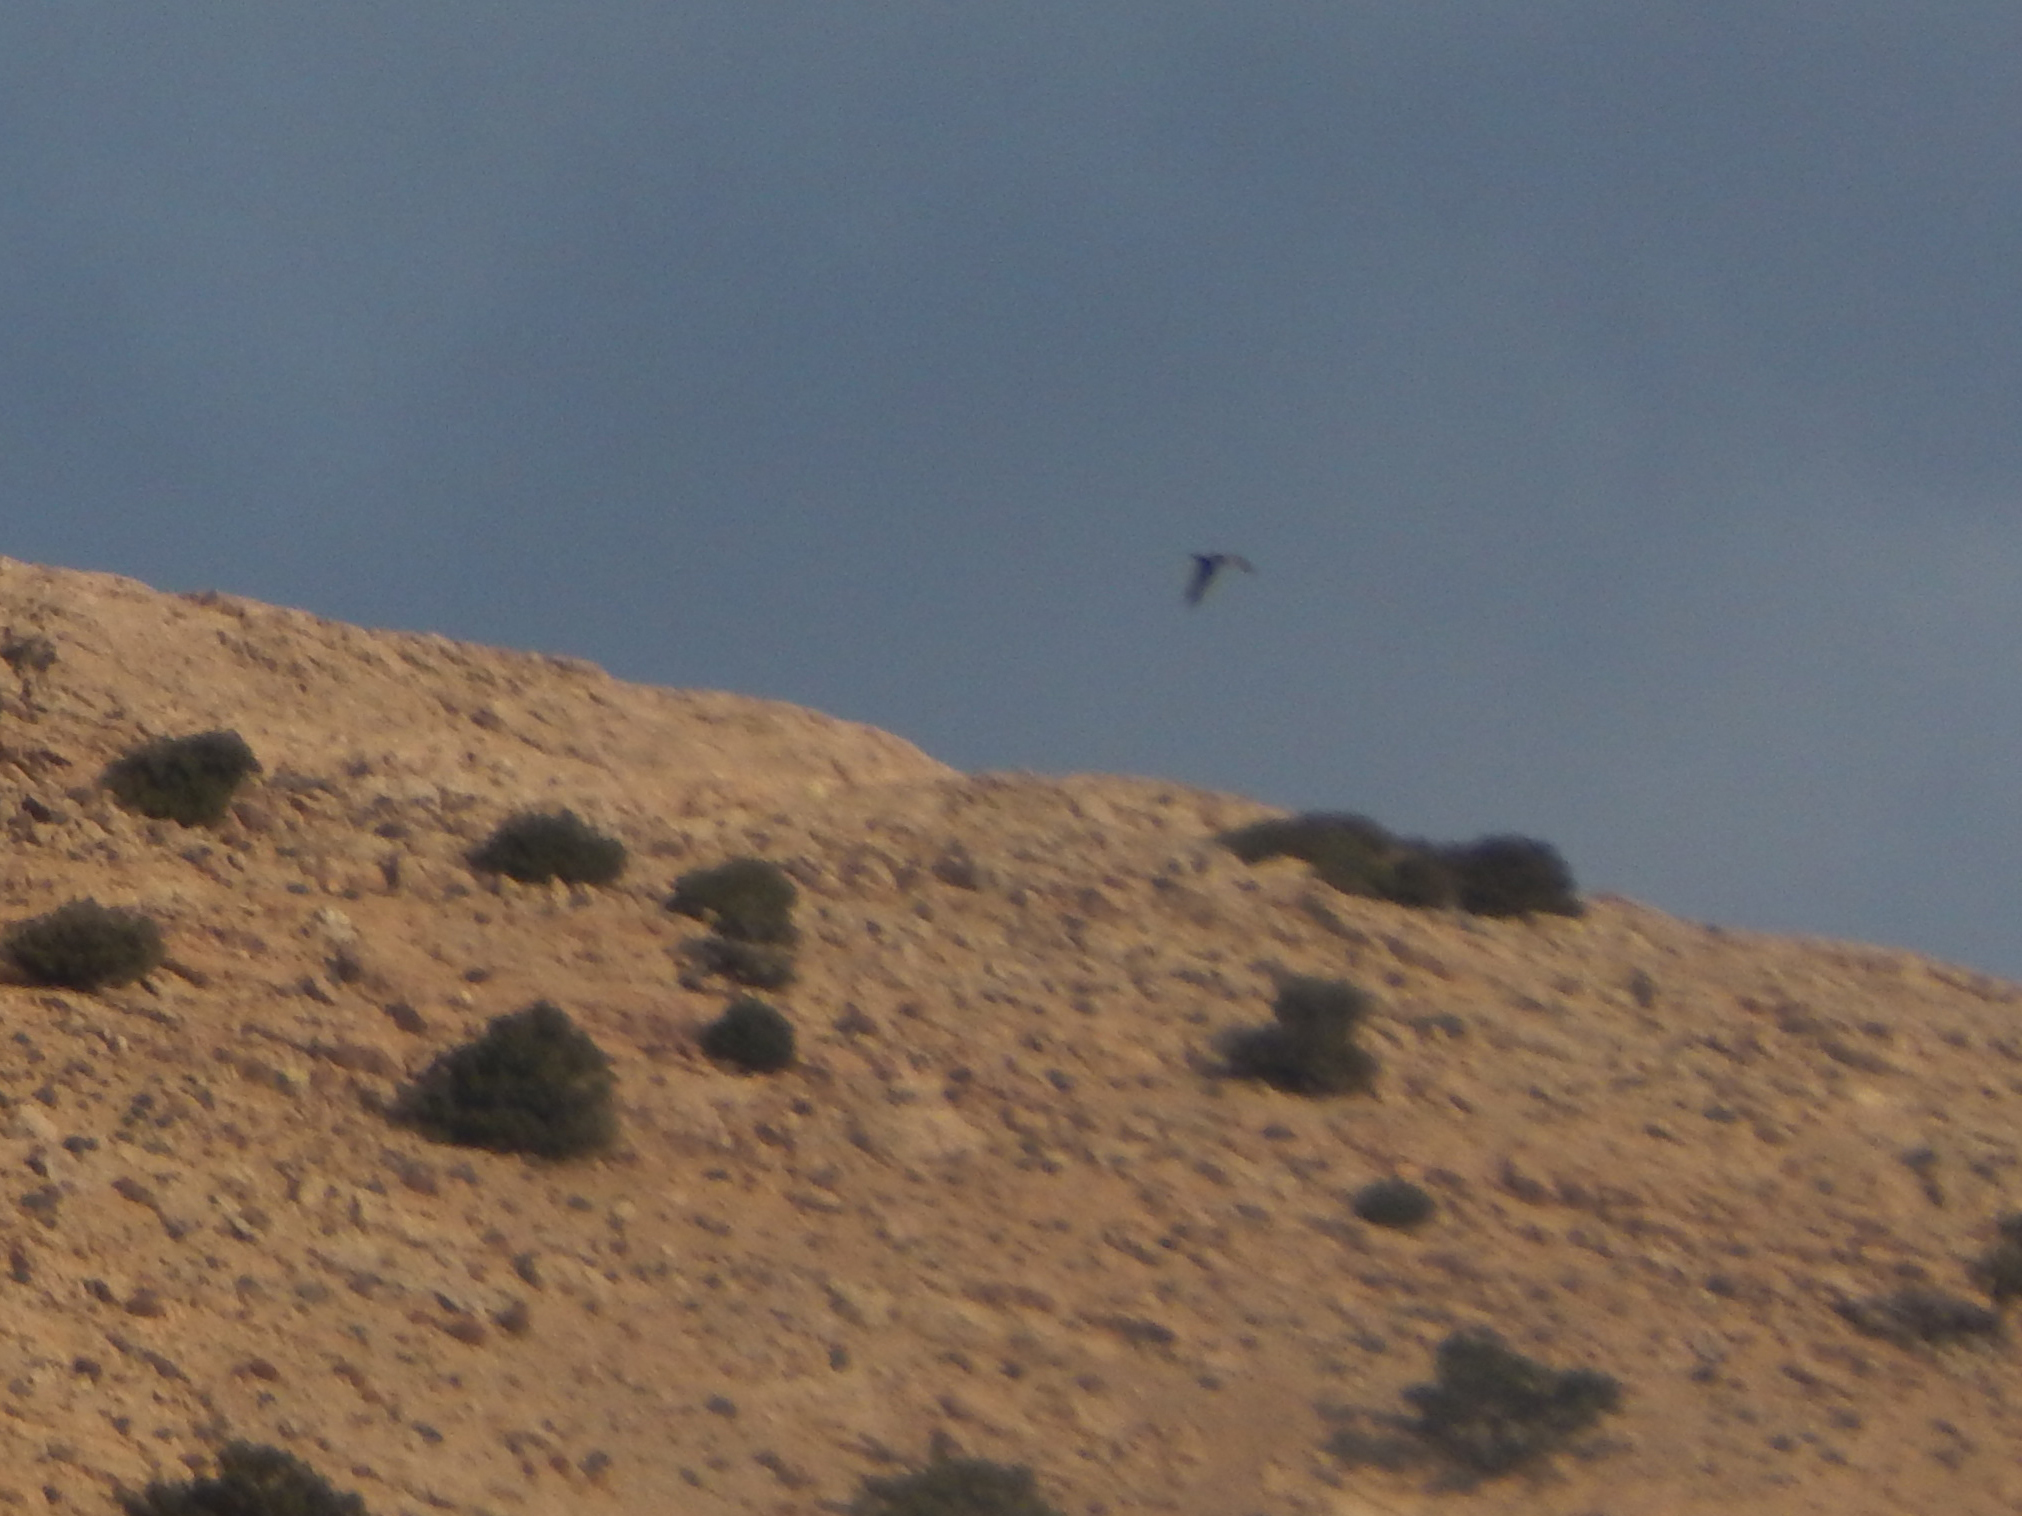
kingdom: Animalia
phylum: Chordata
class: Aves
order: Accipitriformes
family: Accipitridae
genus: Gypaetus
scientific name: Gypaetus barbatus
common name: Bearded vulture
